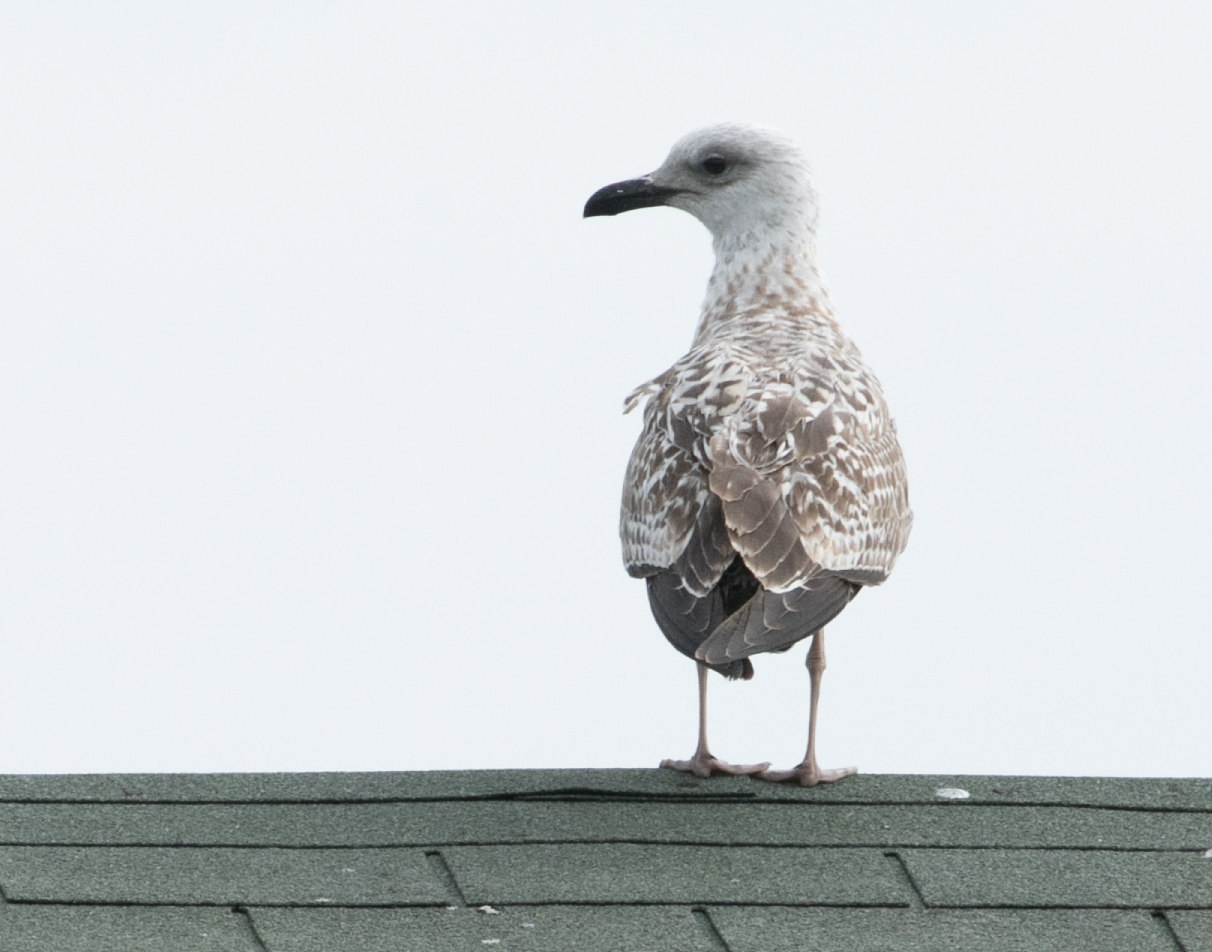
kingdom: Animalia
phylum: Chordata
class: Aves
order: Charadriiformes
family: Laridae
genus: Larus
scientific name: Larus michahellis
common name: Yellow-legged gull
